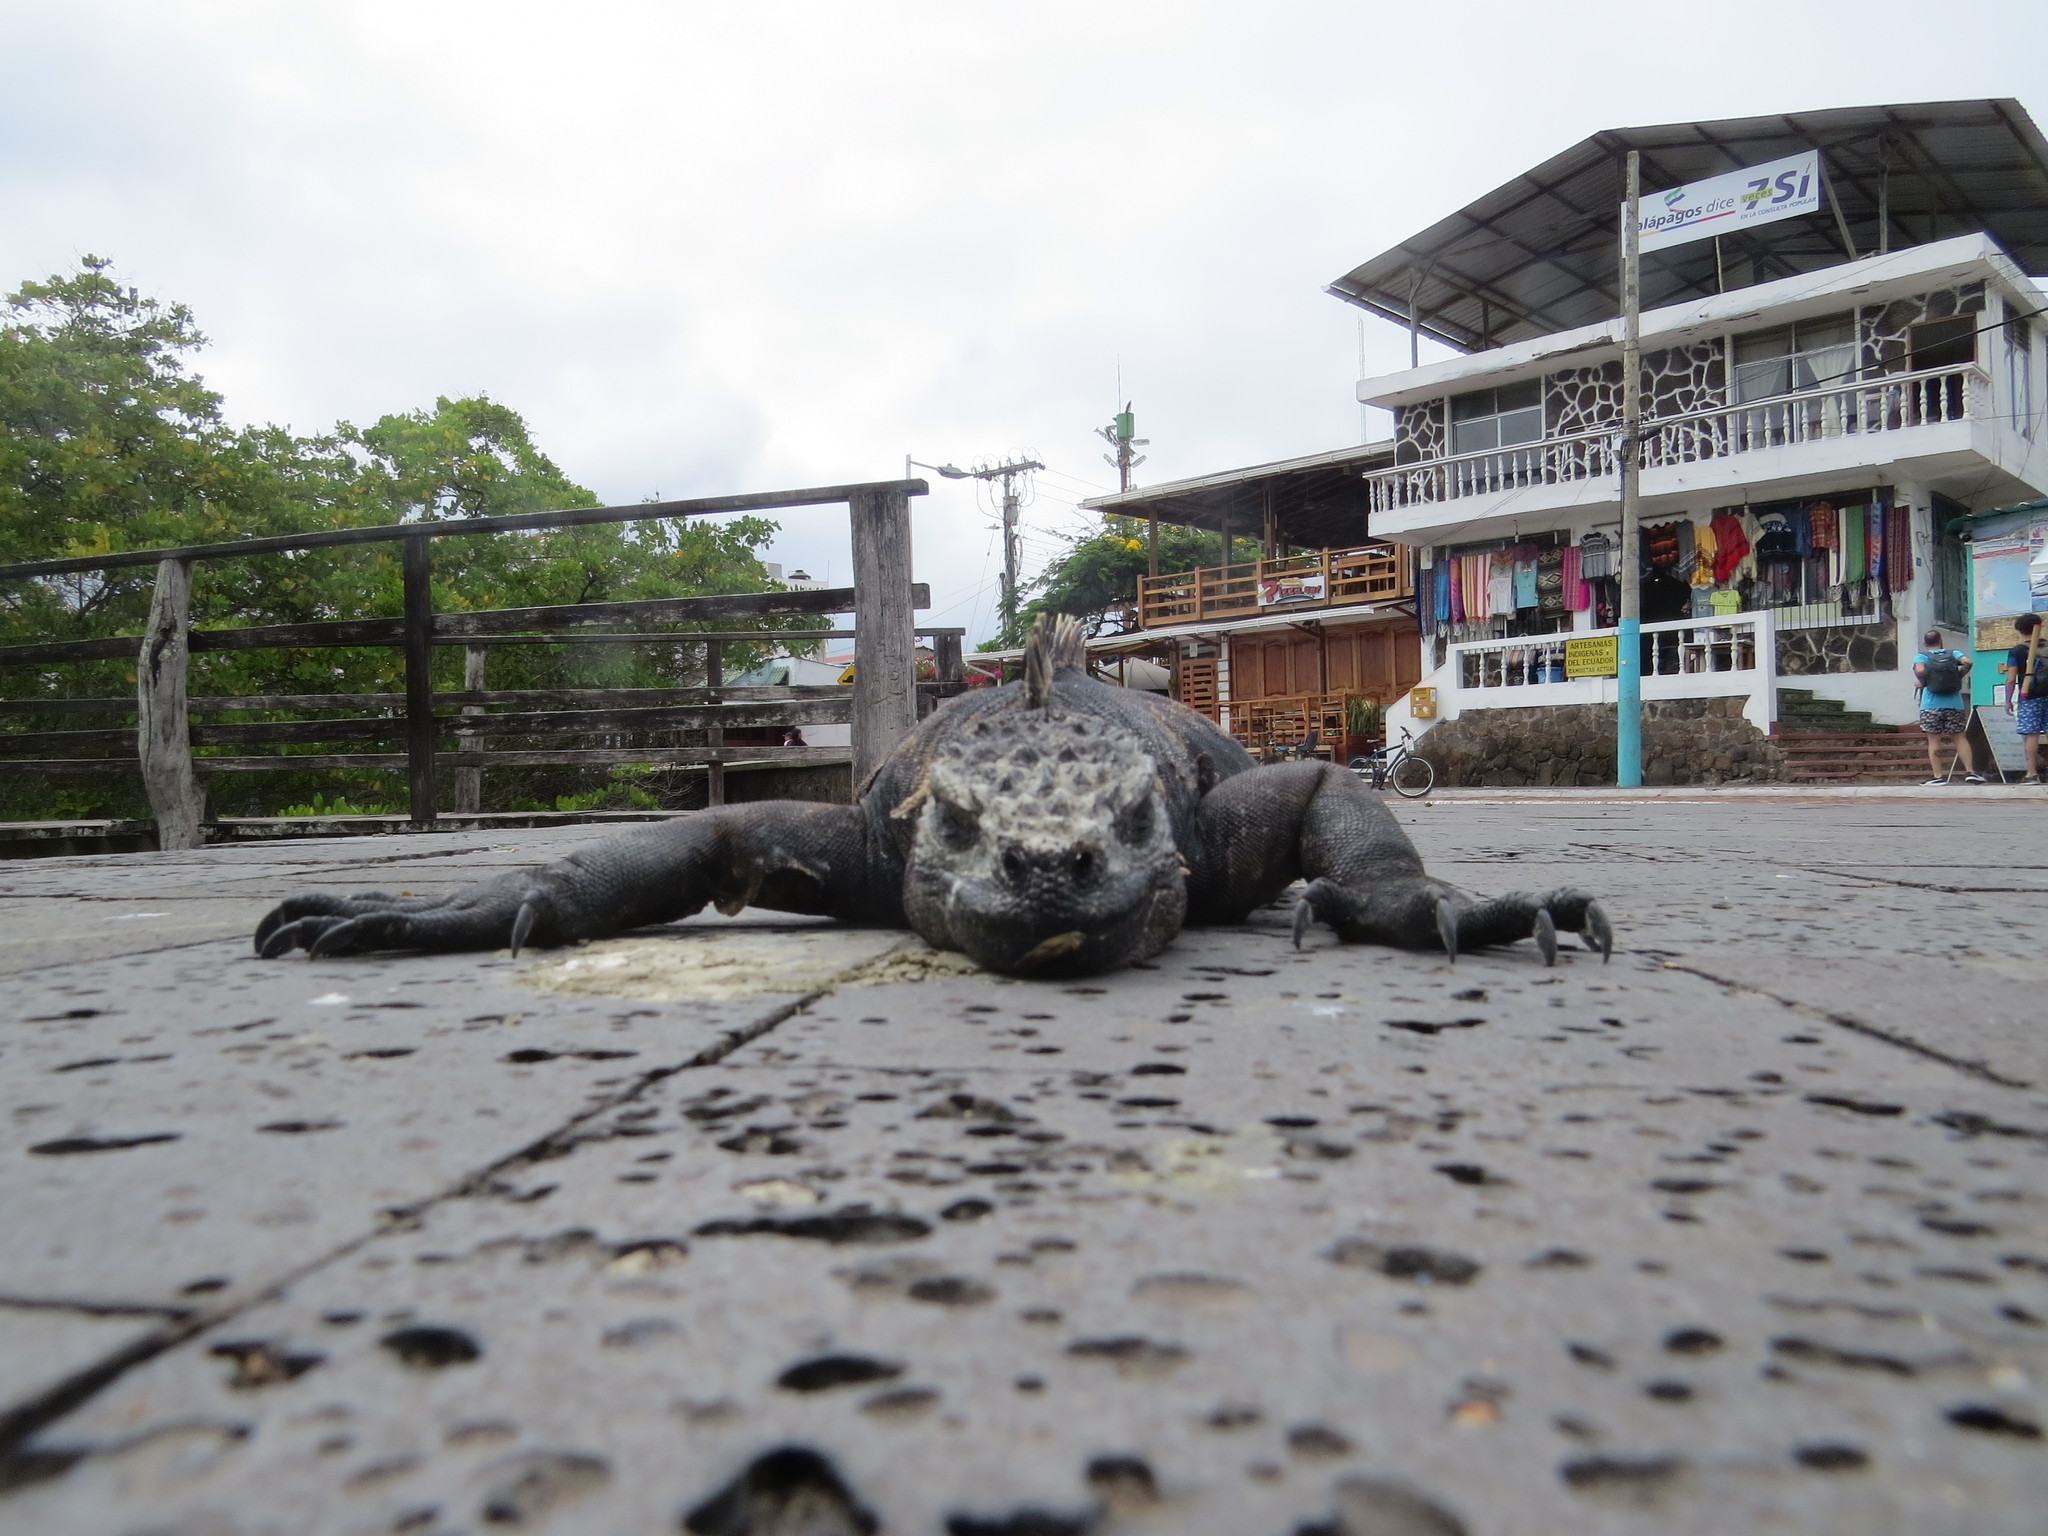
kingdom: Animalia
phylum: Chordata
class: Squamata
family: Iguanidae
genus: Amblyrhynchus
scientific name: Amblyrhynchus cristatus
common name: Marine iguana
